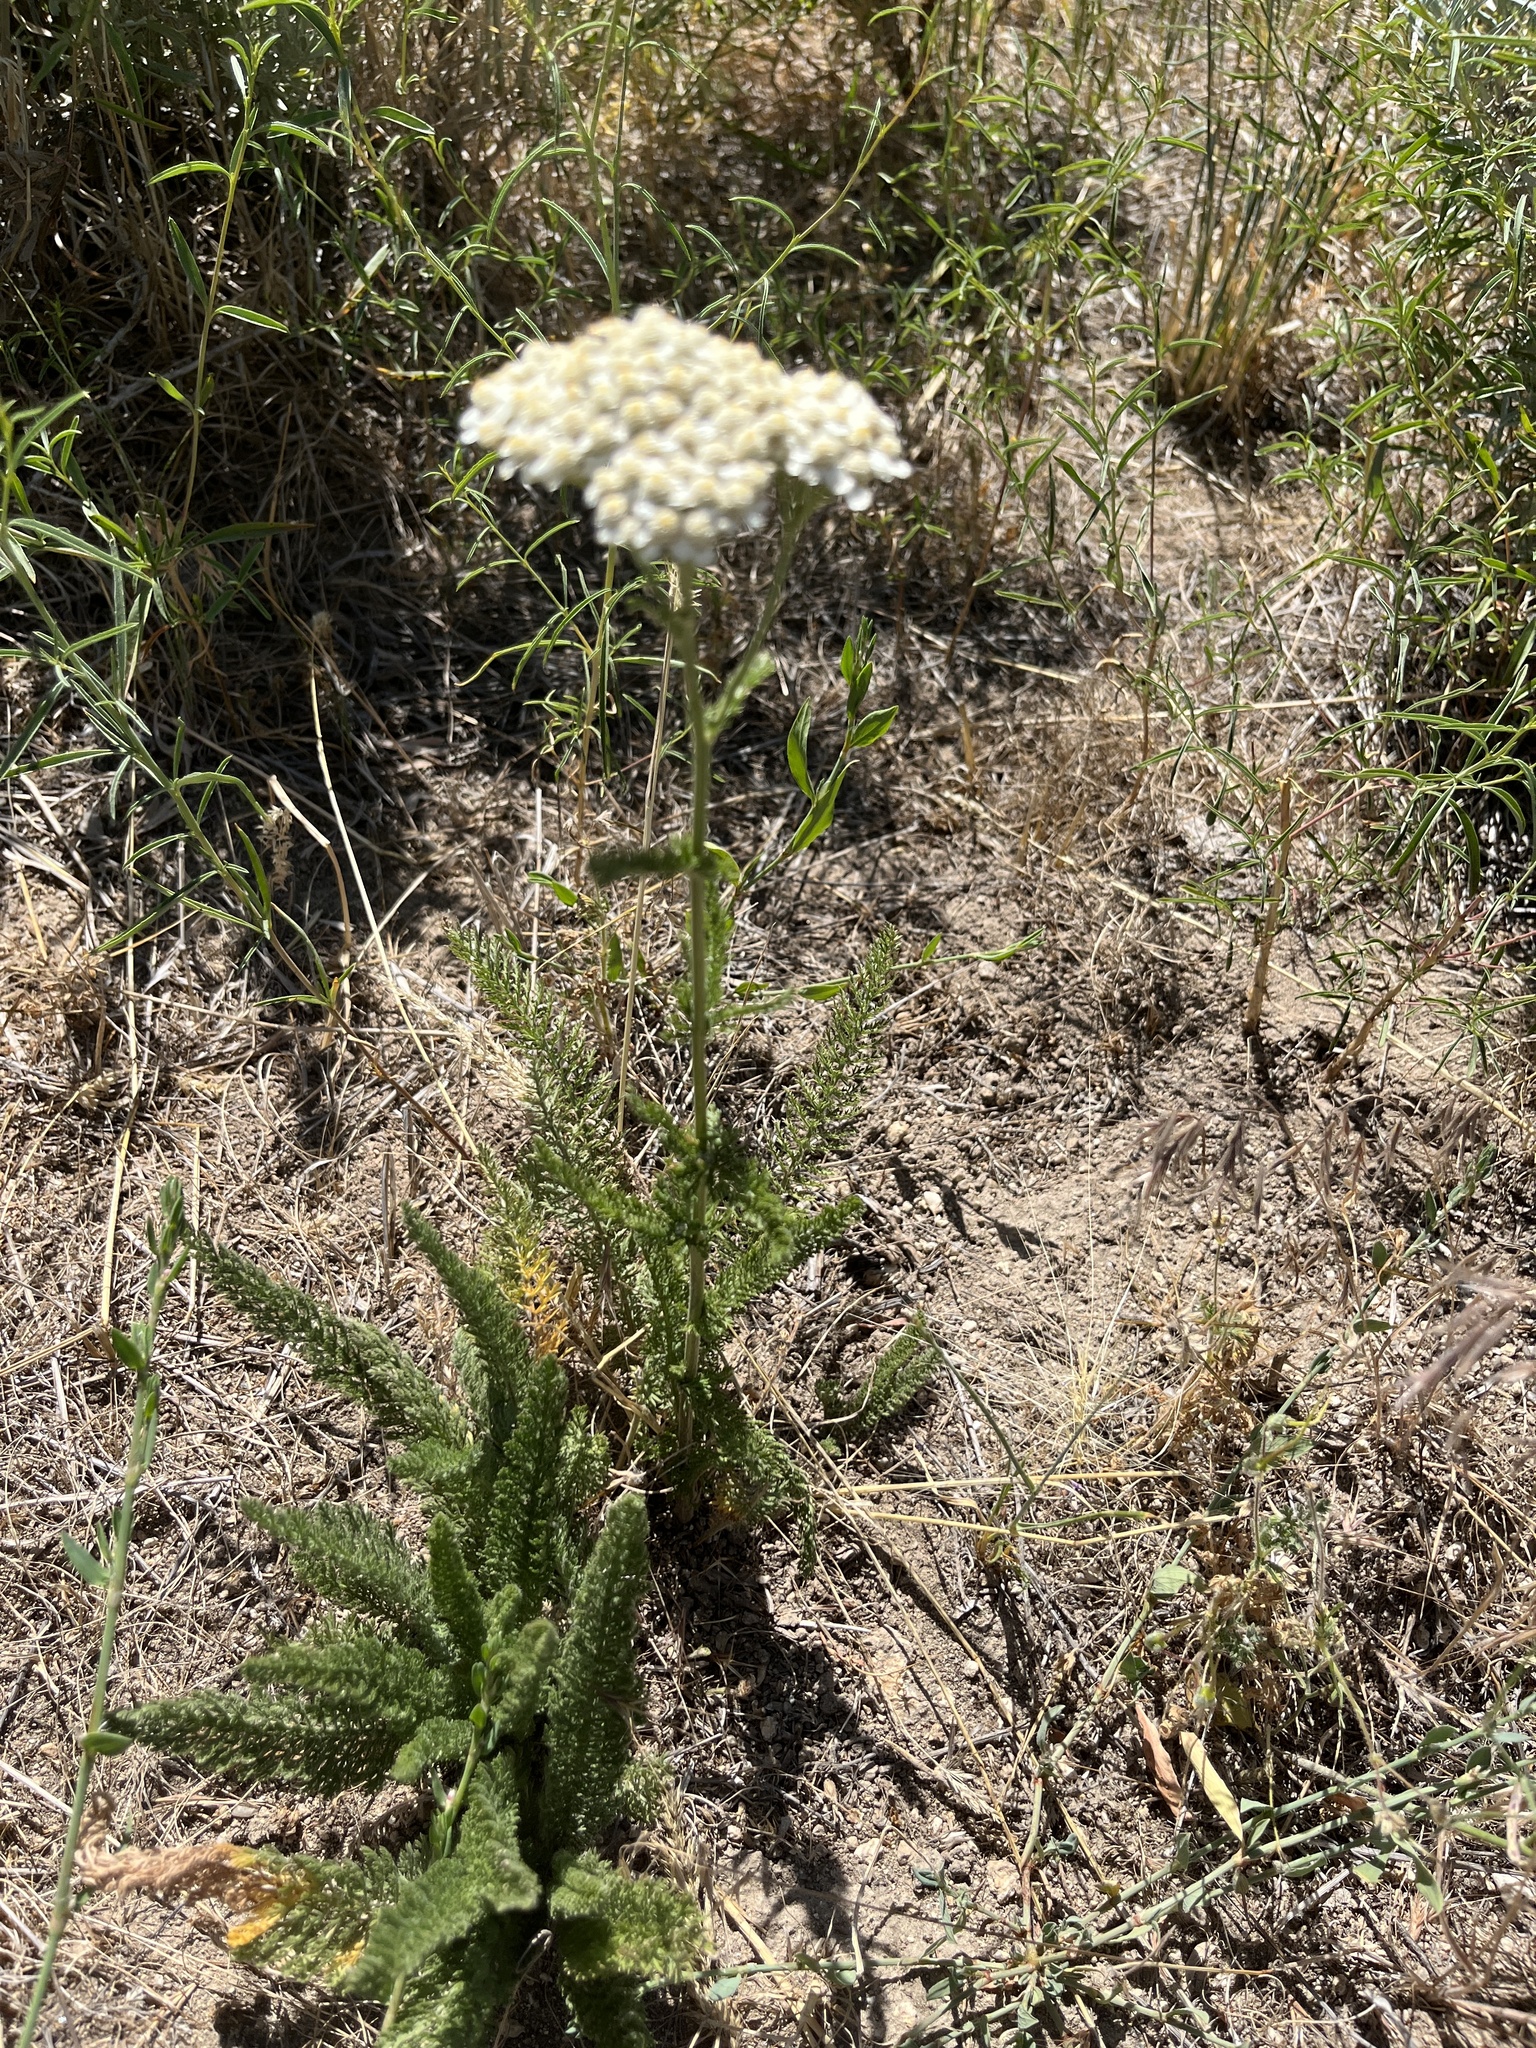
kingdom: Plantae
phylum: Tracheophyta
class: Magnoliopsida
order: Asterales
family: Asteraceae
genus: Achillea
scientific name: Achillea millefolium
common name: Yarrow
